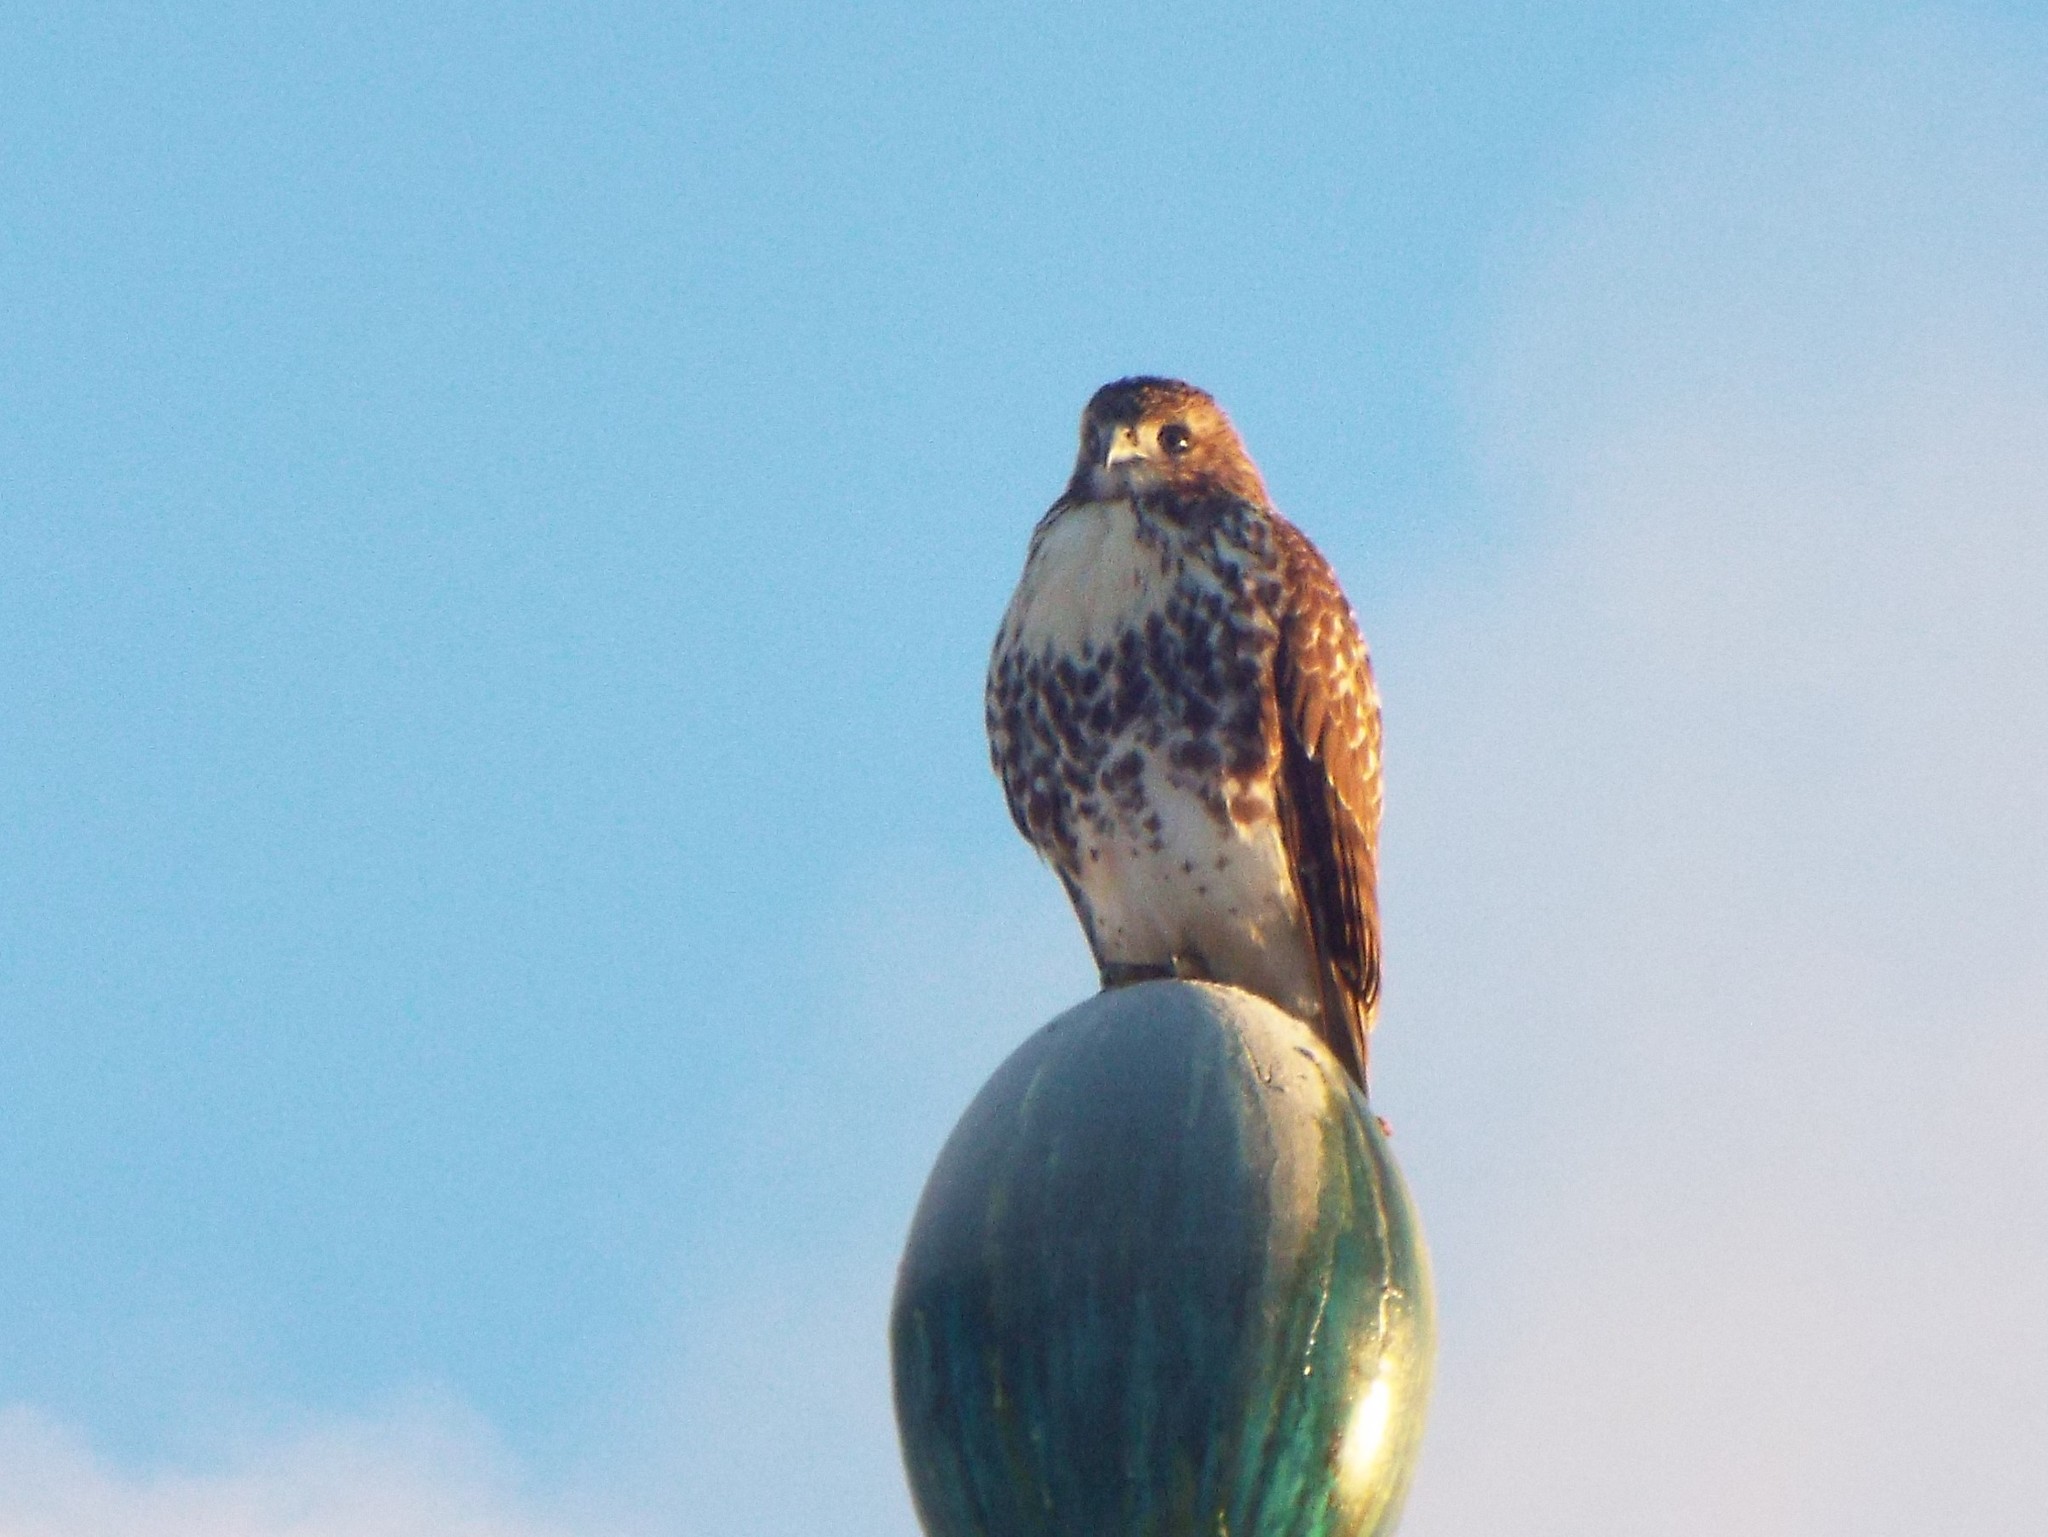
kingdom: Animalia
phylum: Chordata
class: Aves
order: Accipitriformes
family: Accipitridae
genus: Buteo
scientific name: Buteo jamaicensis
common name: Red-tailed hawk
